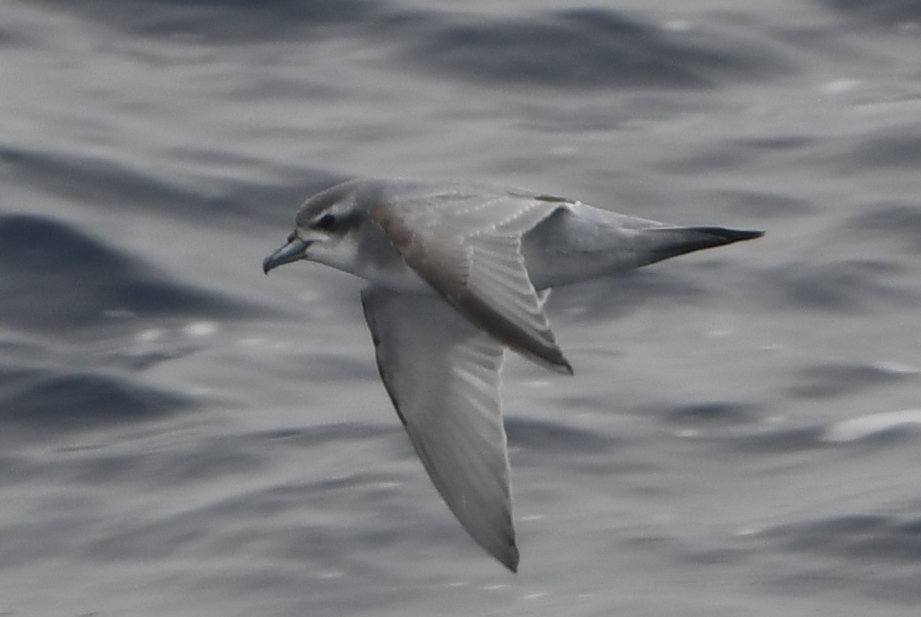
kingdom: Animalia
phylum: Chordata
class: Aves
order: Procellariiformes
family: Procellariidae
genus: Pachyptila
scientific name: Pachyptila desolata
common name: Antarctic prion
